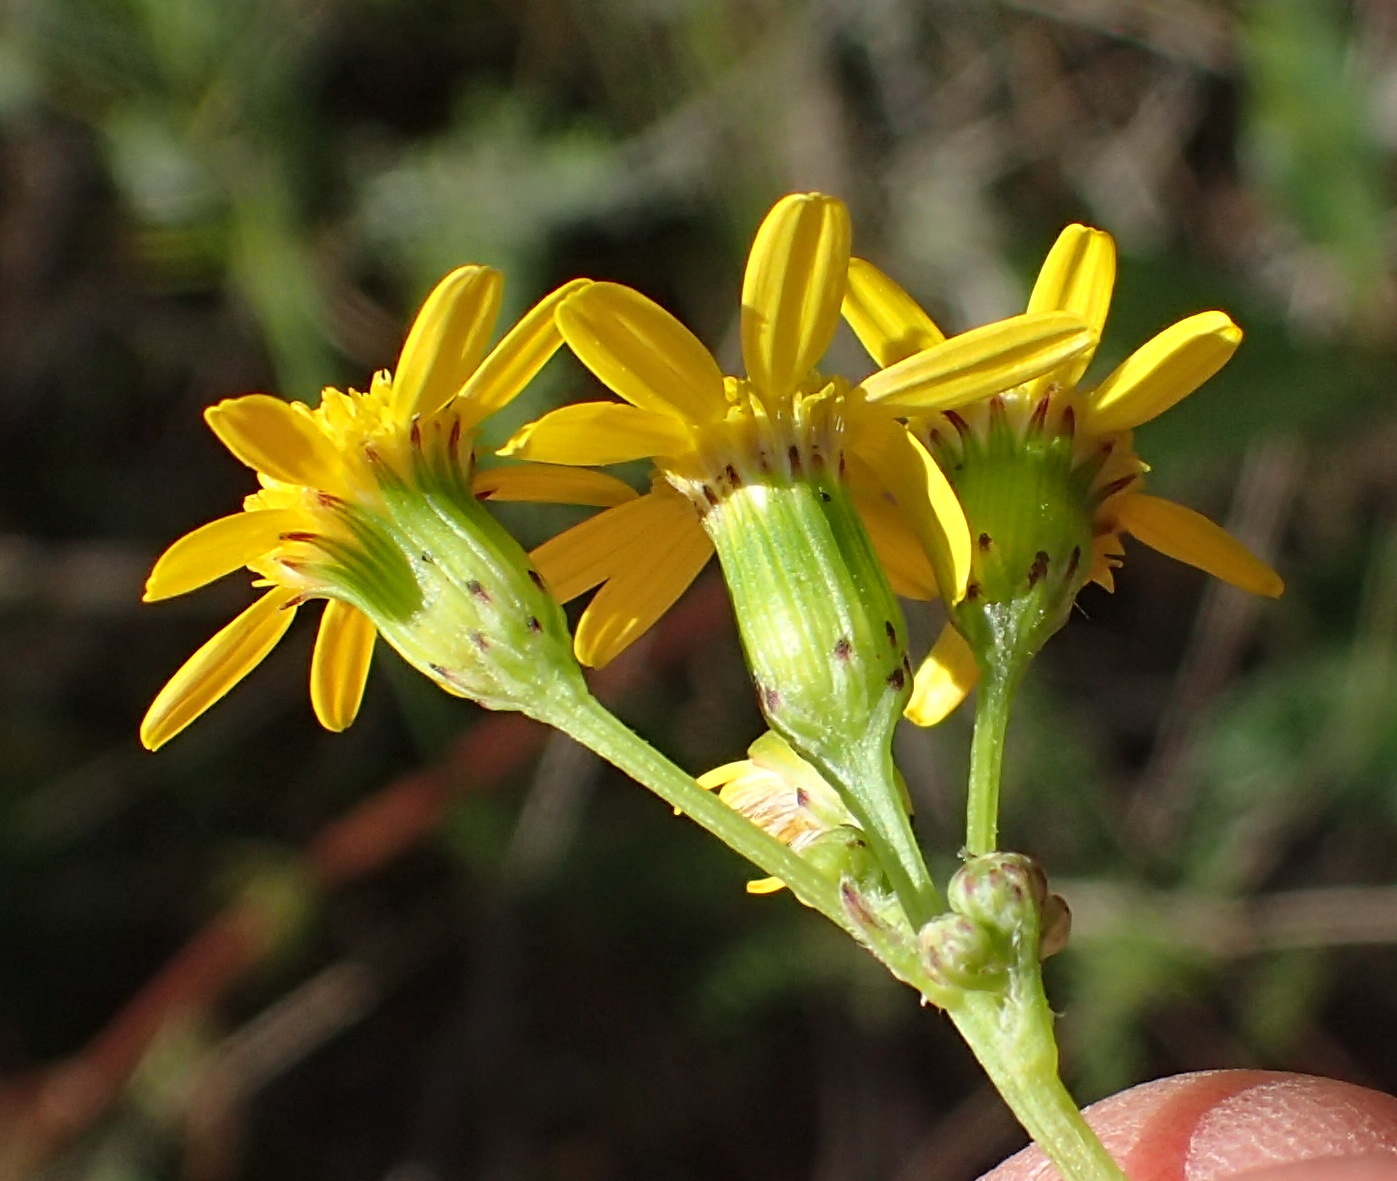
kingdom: Plantae
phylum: Tracheophyta
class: Magnoliopsida
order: Asterales
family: Asteraceae
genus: Senecio
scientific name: Senecio burchellii
